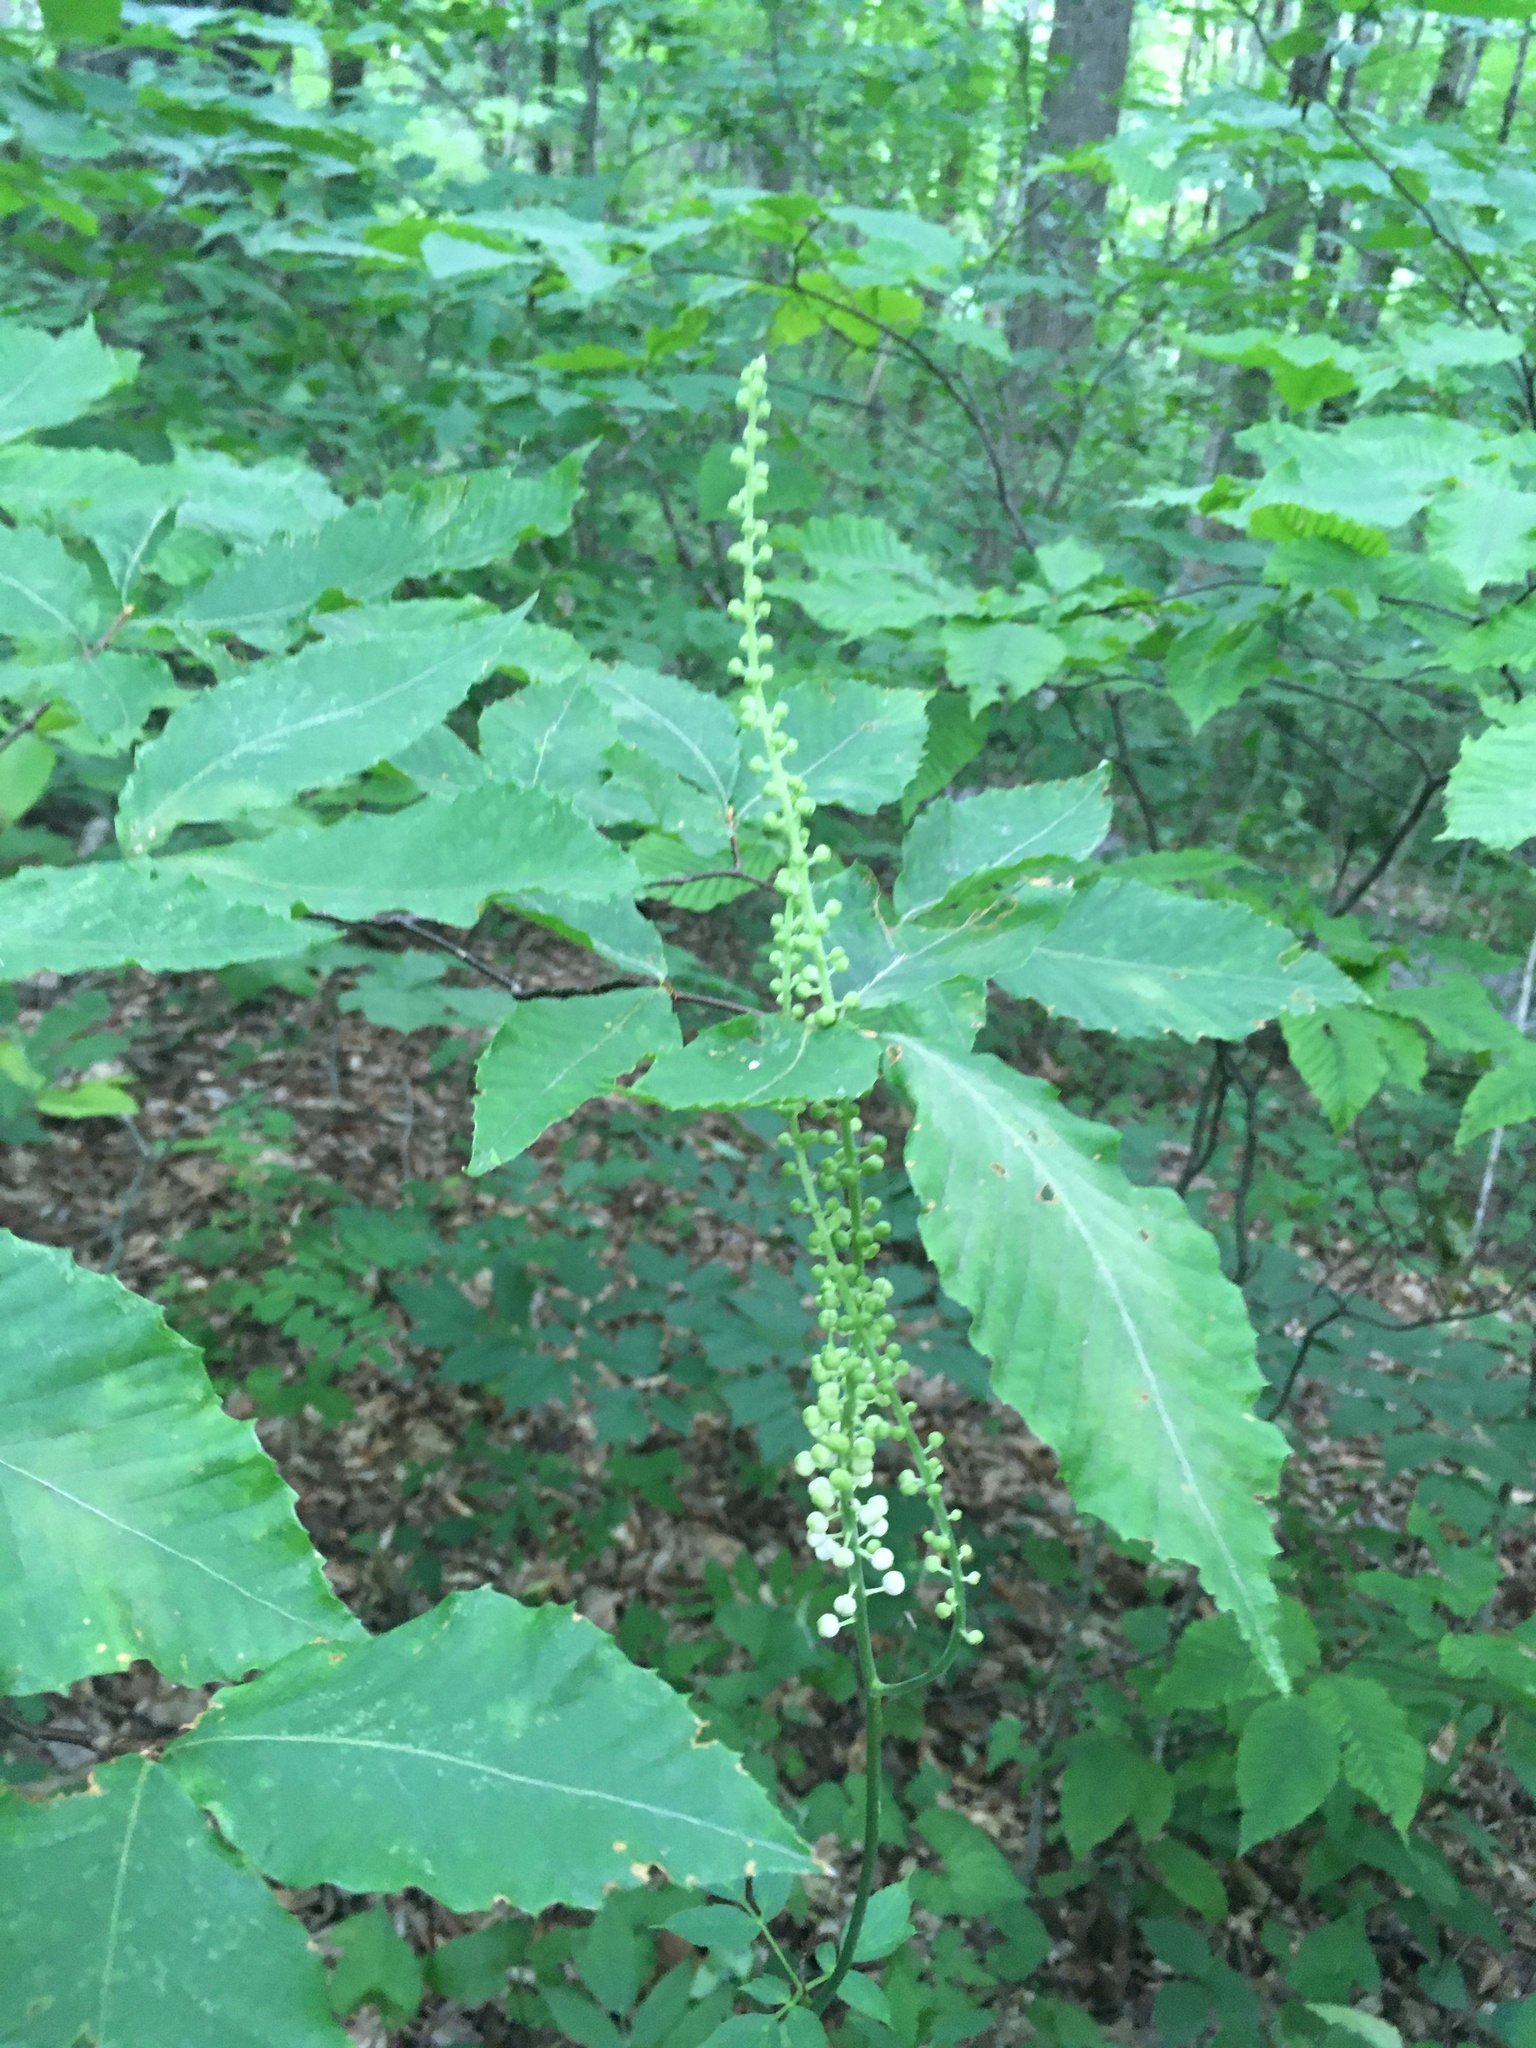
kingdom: Plantae
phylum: Tracheophyta
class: Magnoliopsida
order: Ranunculales
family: Ranunculaceae
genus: Actaea
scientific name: Actaea racemosa
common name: Black cohosh
